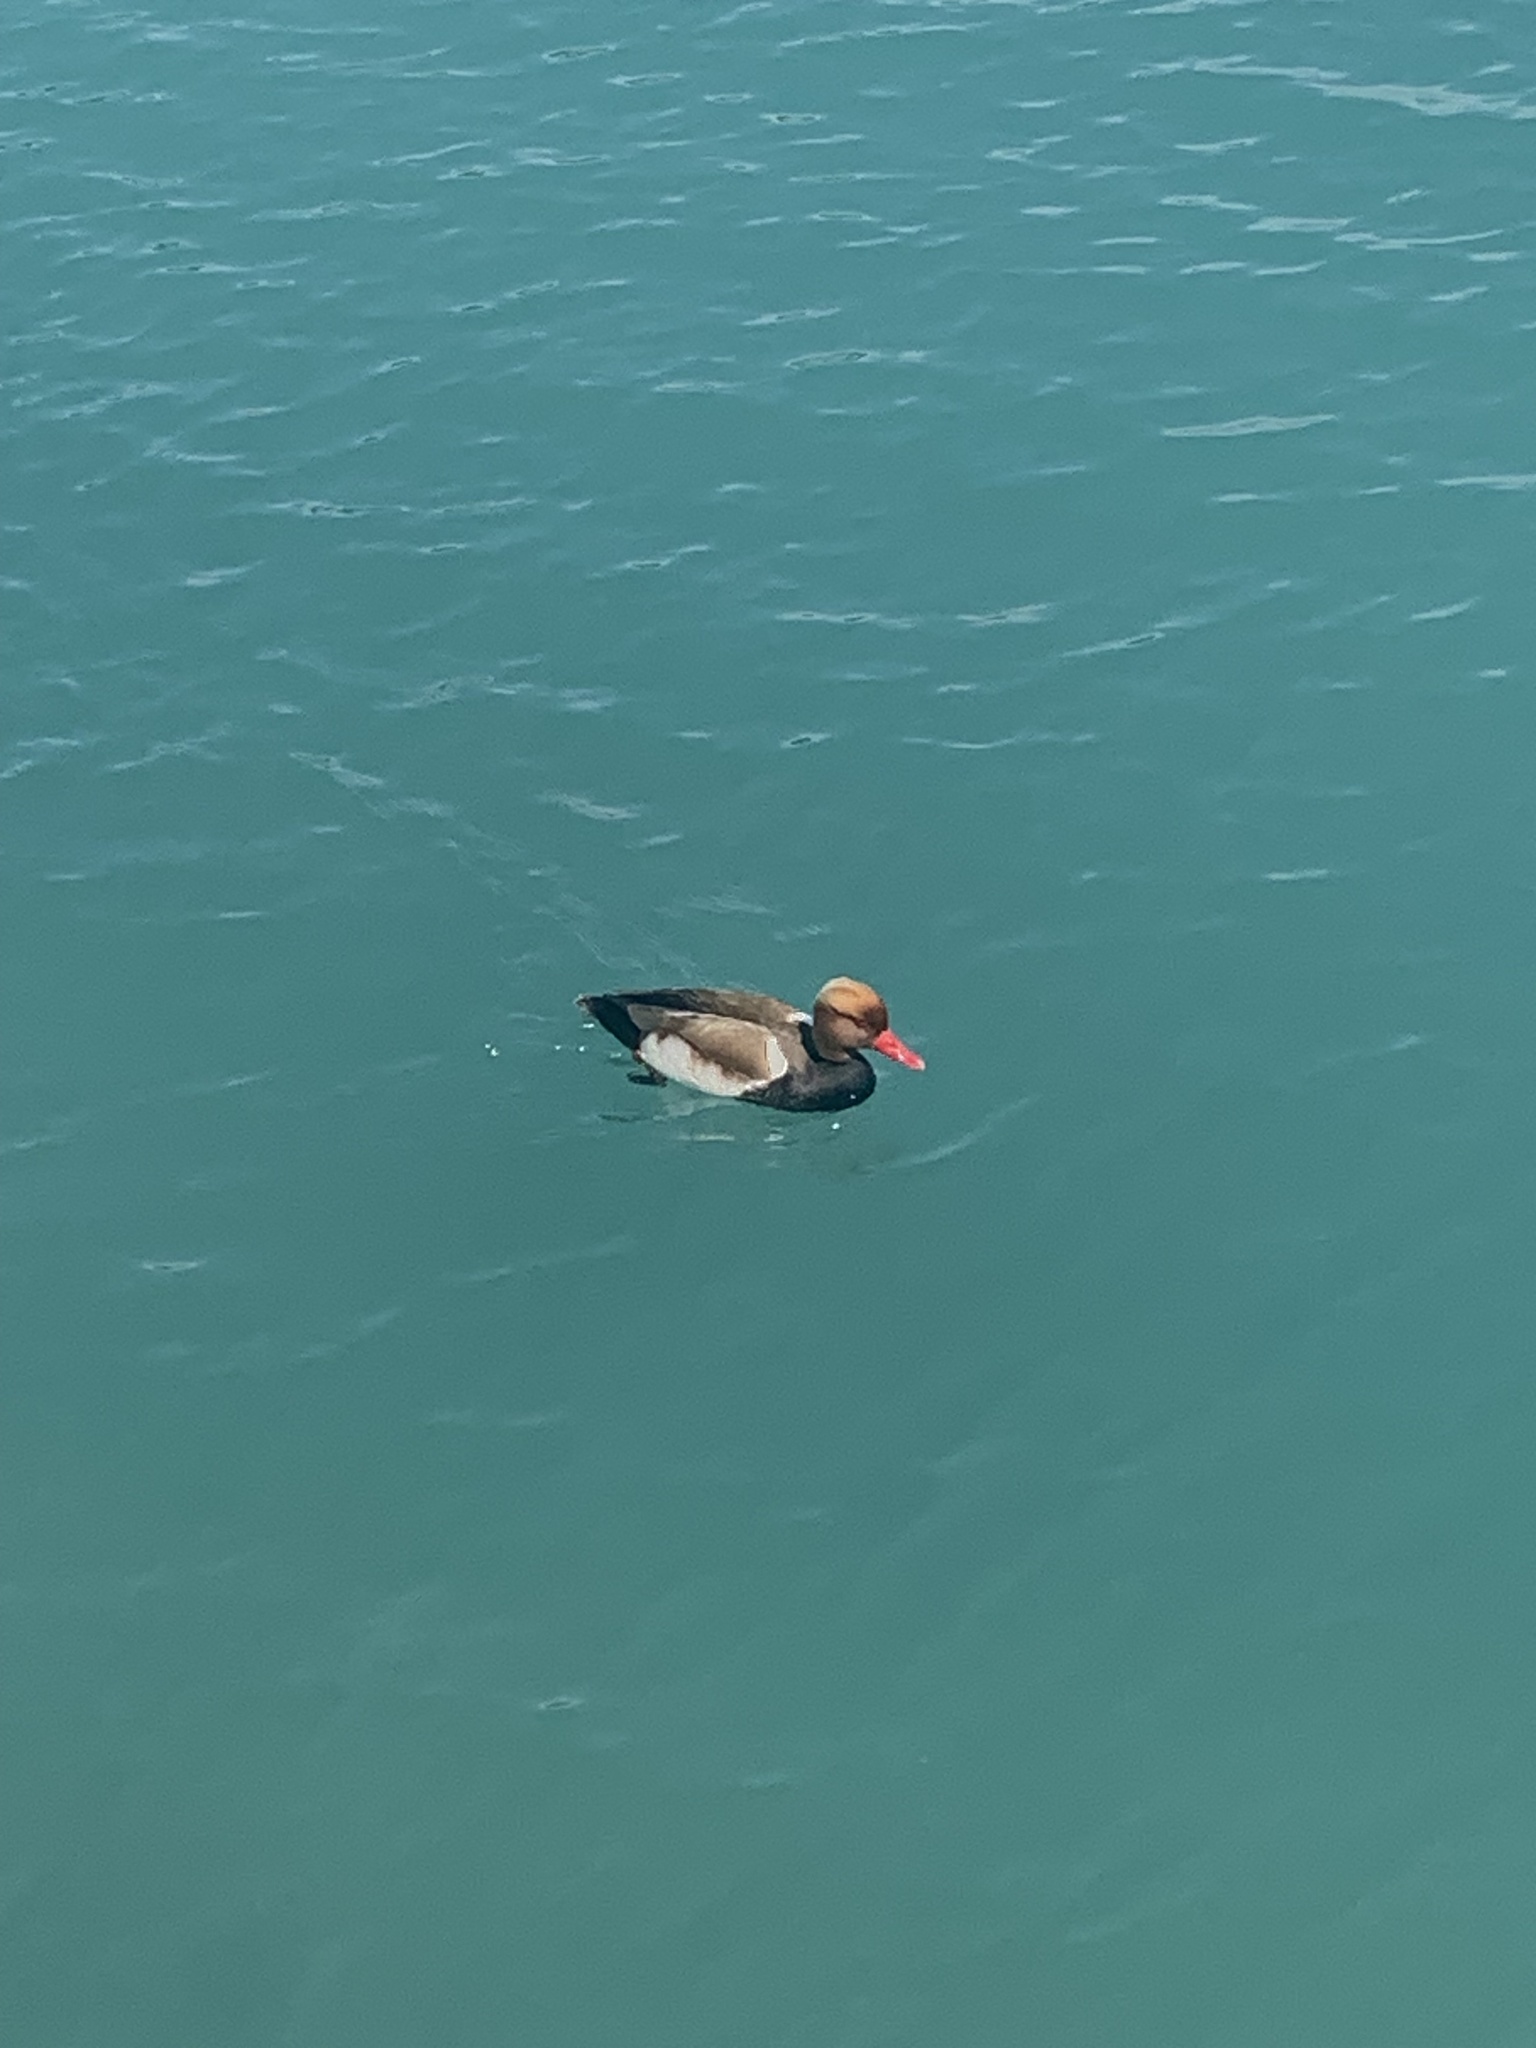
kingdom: Animalia
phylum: Chordata
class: Aves
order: Anseriformes
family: Anatidae
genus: Netta
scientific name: Netta rufina
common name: Red-crested pochard
